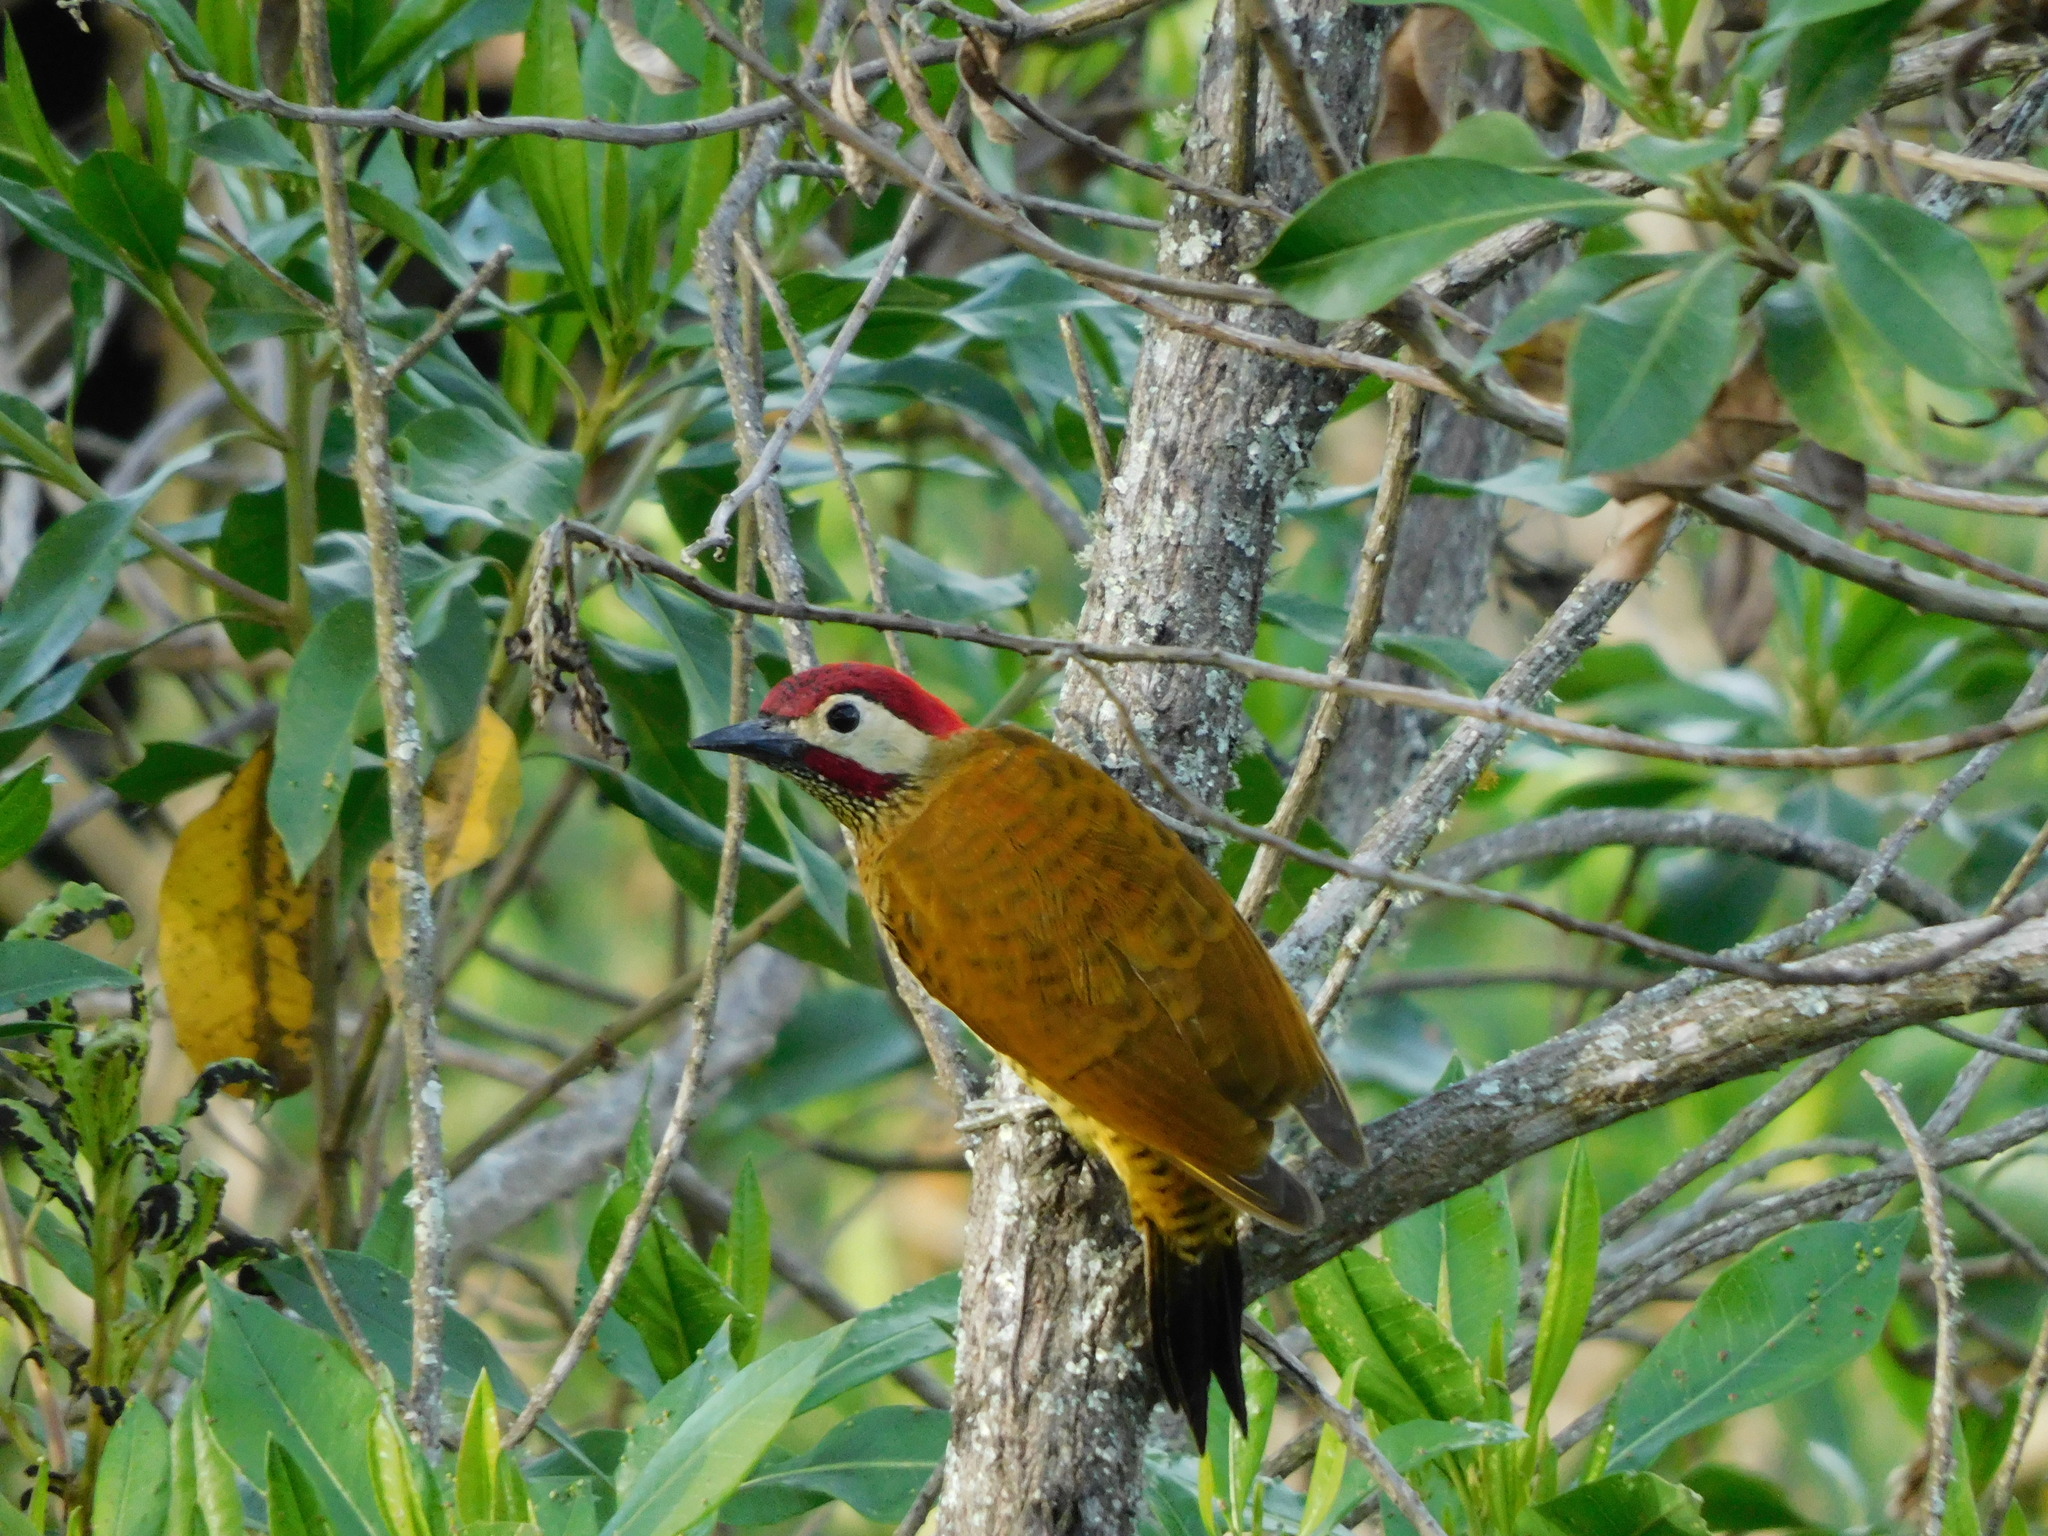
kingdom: Animalia
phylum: Chordata
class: Aves
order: Piciformes
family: Picidae
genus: Colaptes
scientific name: Colaptes rubiginosus
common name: Golden-olive woodpecker
